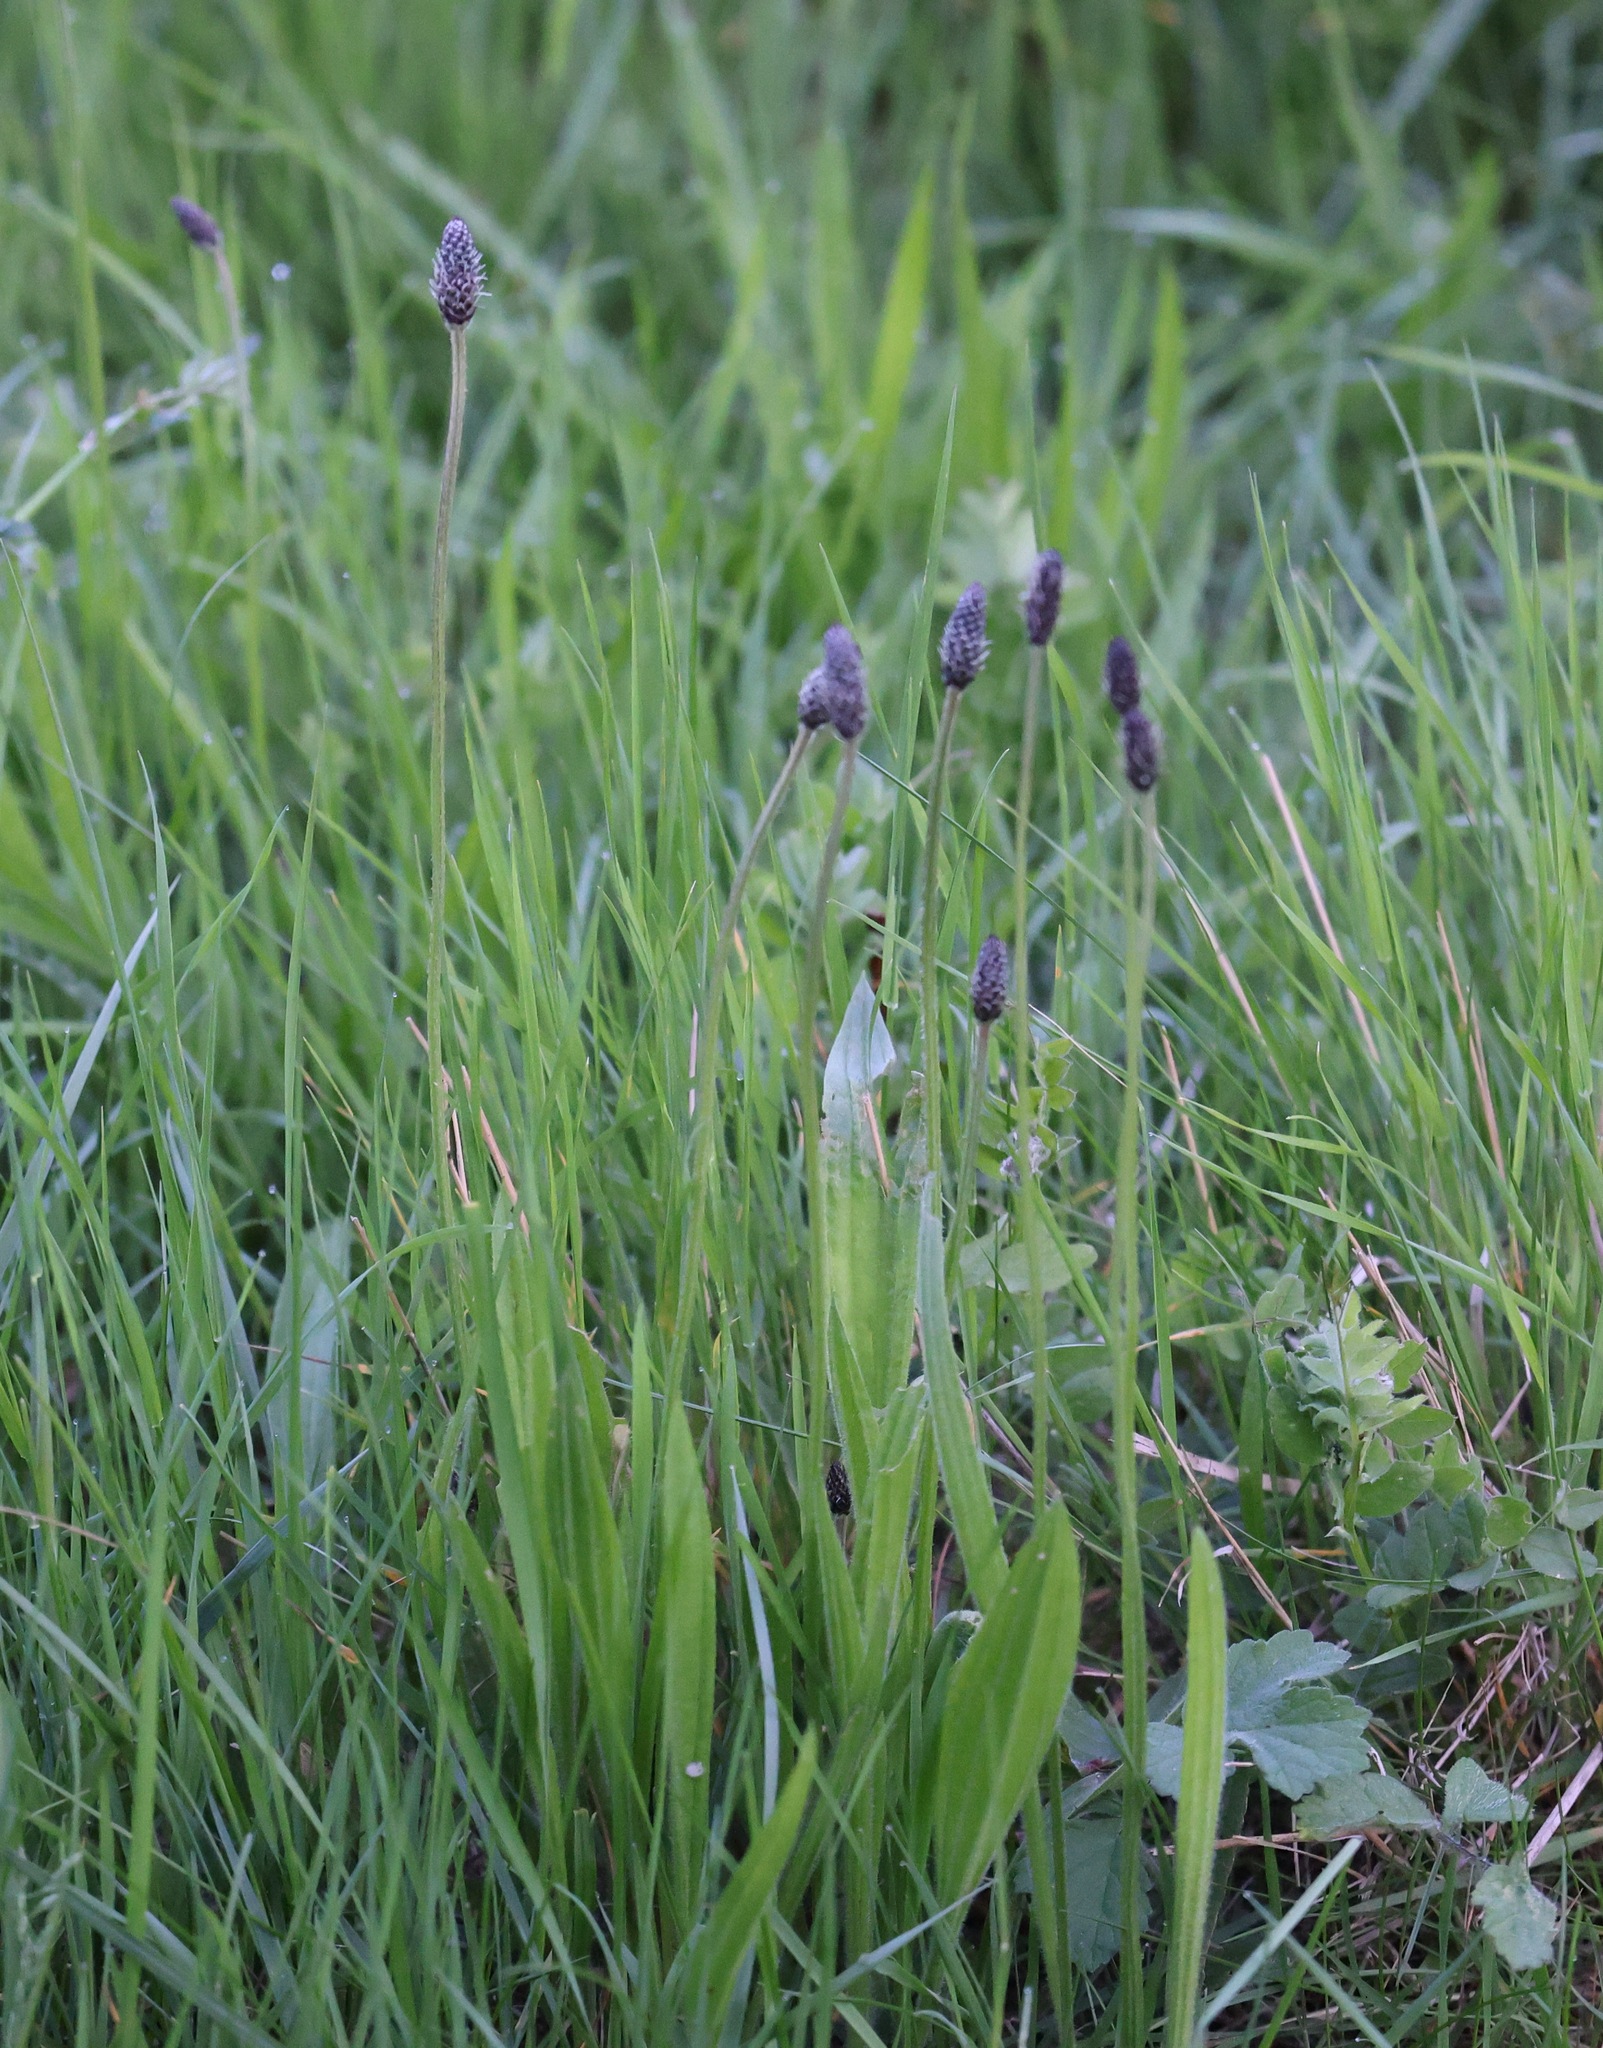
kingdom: Plantae
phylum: Tracheophyta
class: Magnoliopsida
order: Lamiales
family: Plantaginaceae
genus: Plantago
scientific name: Plantago lanceolata
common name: Ribwort plantain
